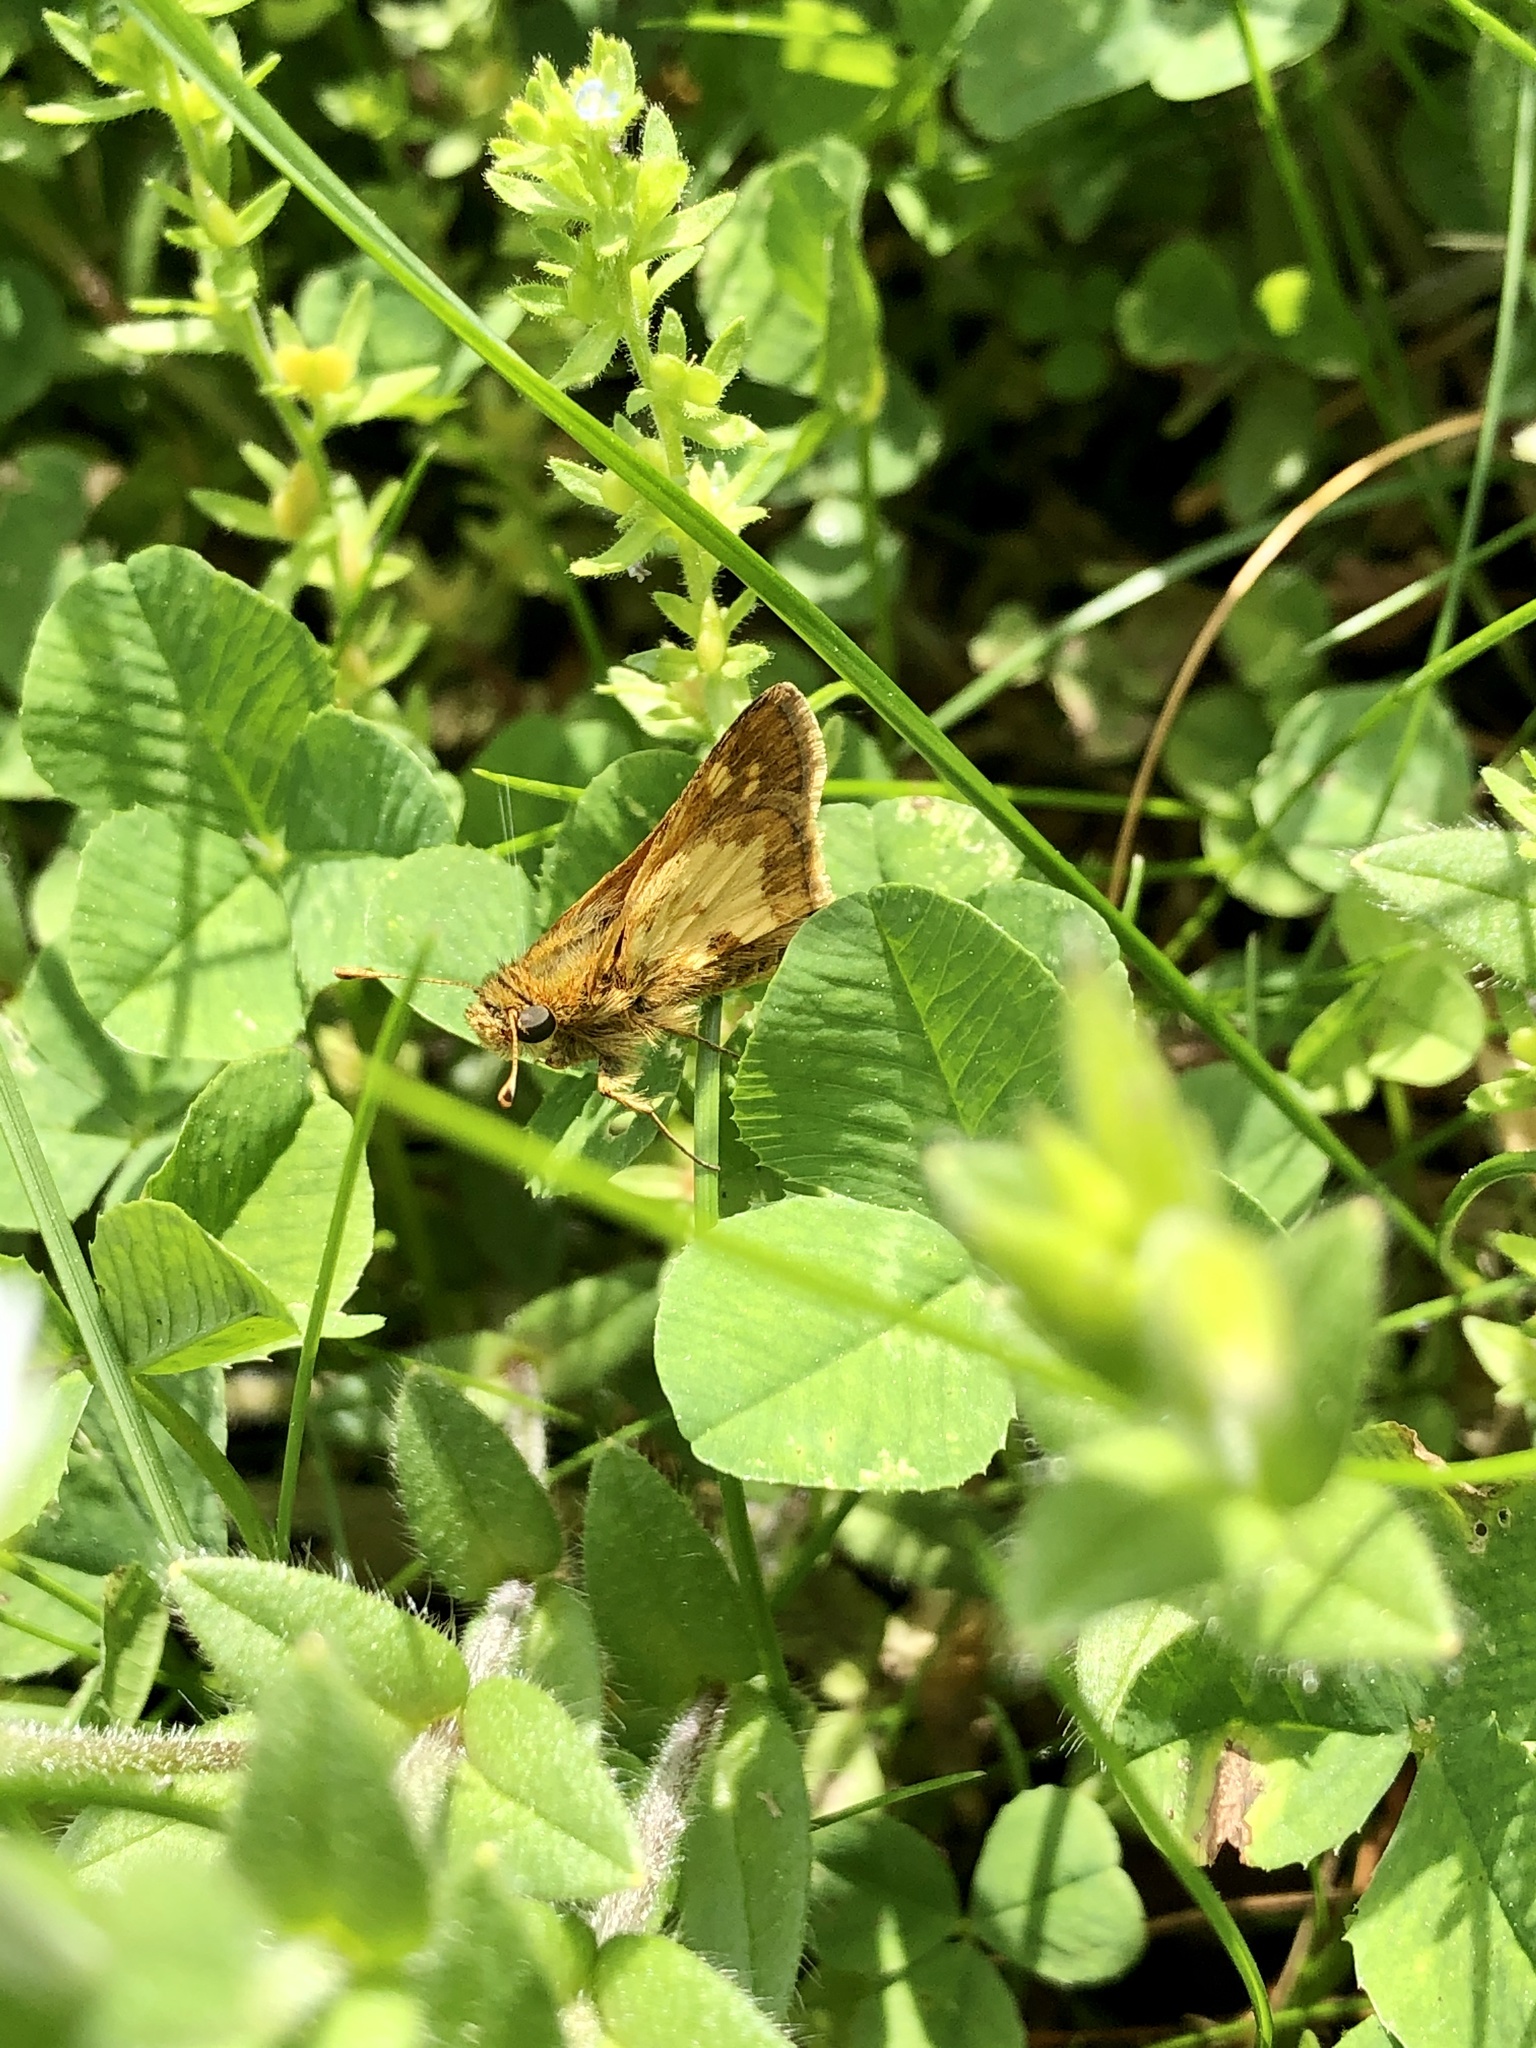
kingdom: Animalia
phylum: Arthropoda
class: Insecta
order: Lepidoptera
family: Hesperiidae
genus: Polites
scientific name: Polites coras
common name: Peck's skipper
